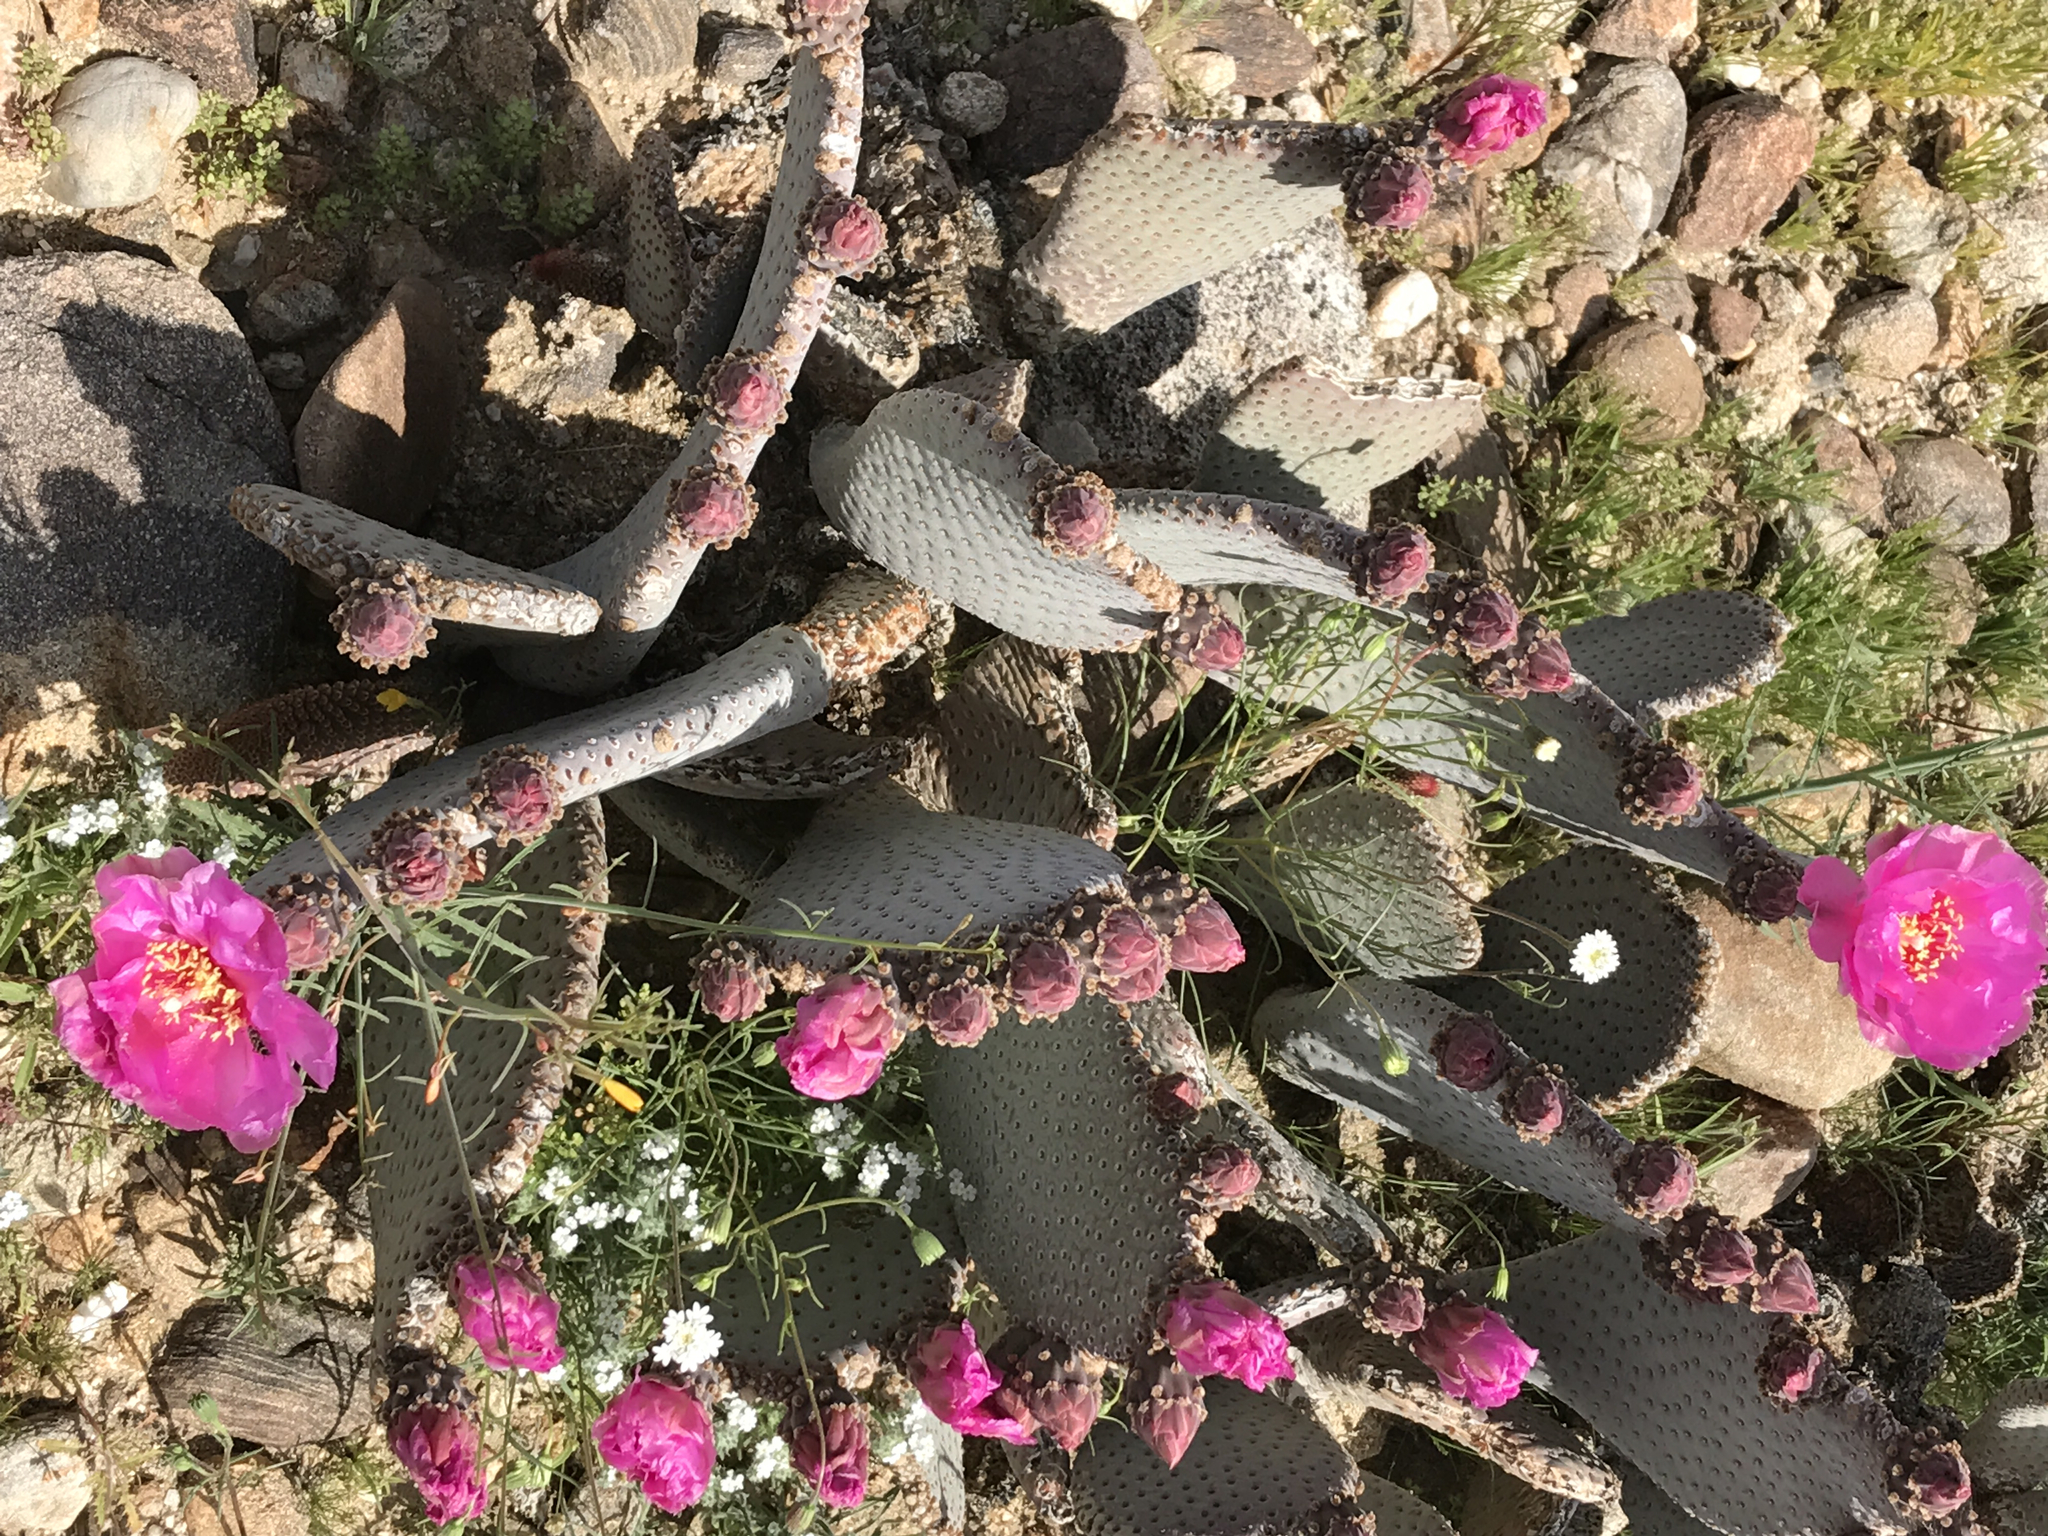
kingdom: Plantae
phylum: Tracheophyta
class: Magnoliopsida
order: Caryophyllales
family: Cactaceae
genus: Opuntia
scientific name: Opuntia basilaris
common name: Beavertail prickly-pear
